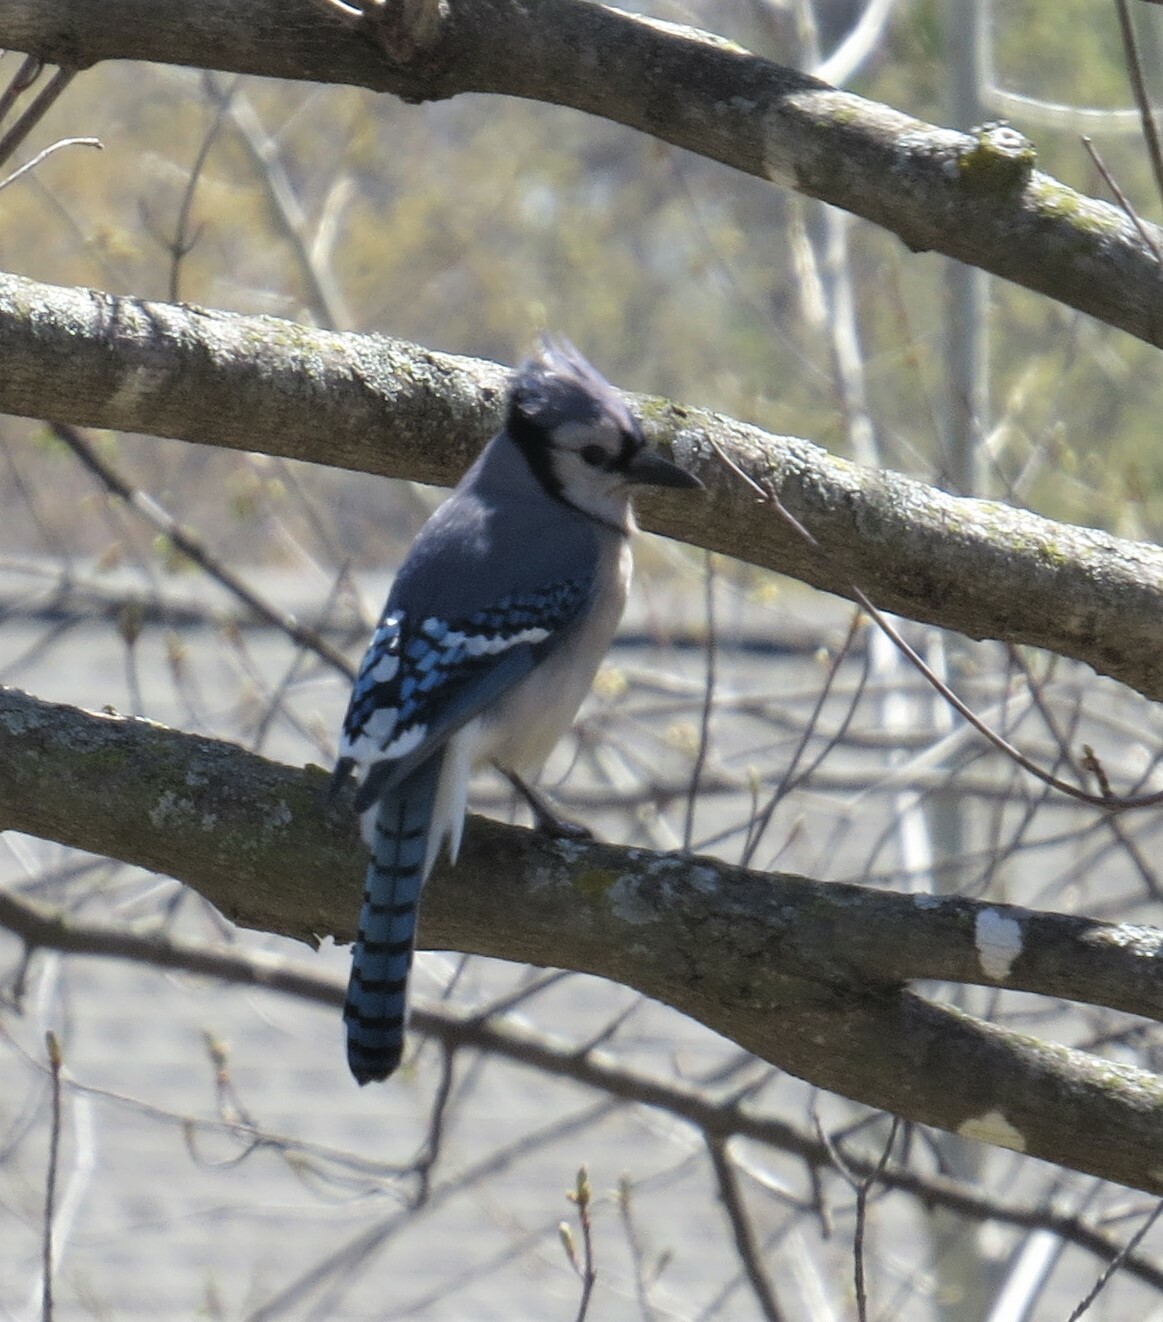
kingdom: Animalia
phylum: Chordata
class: Aves
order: Passeriformes
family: Corvidae
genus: Cyanocitta
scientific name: Cyanocitta cristata
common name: Blue jay
